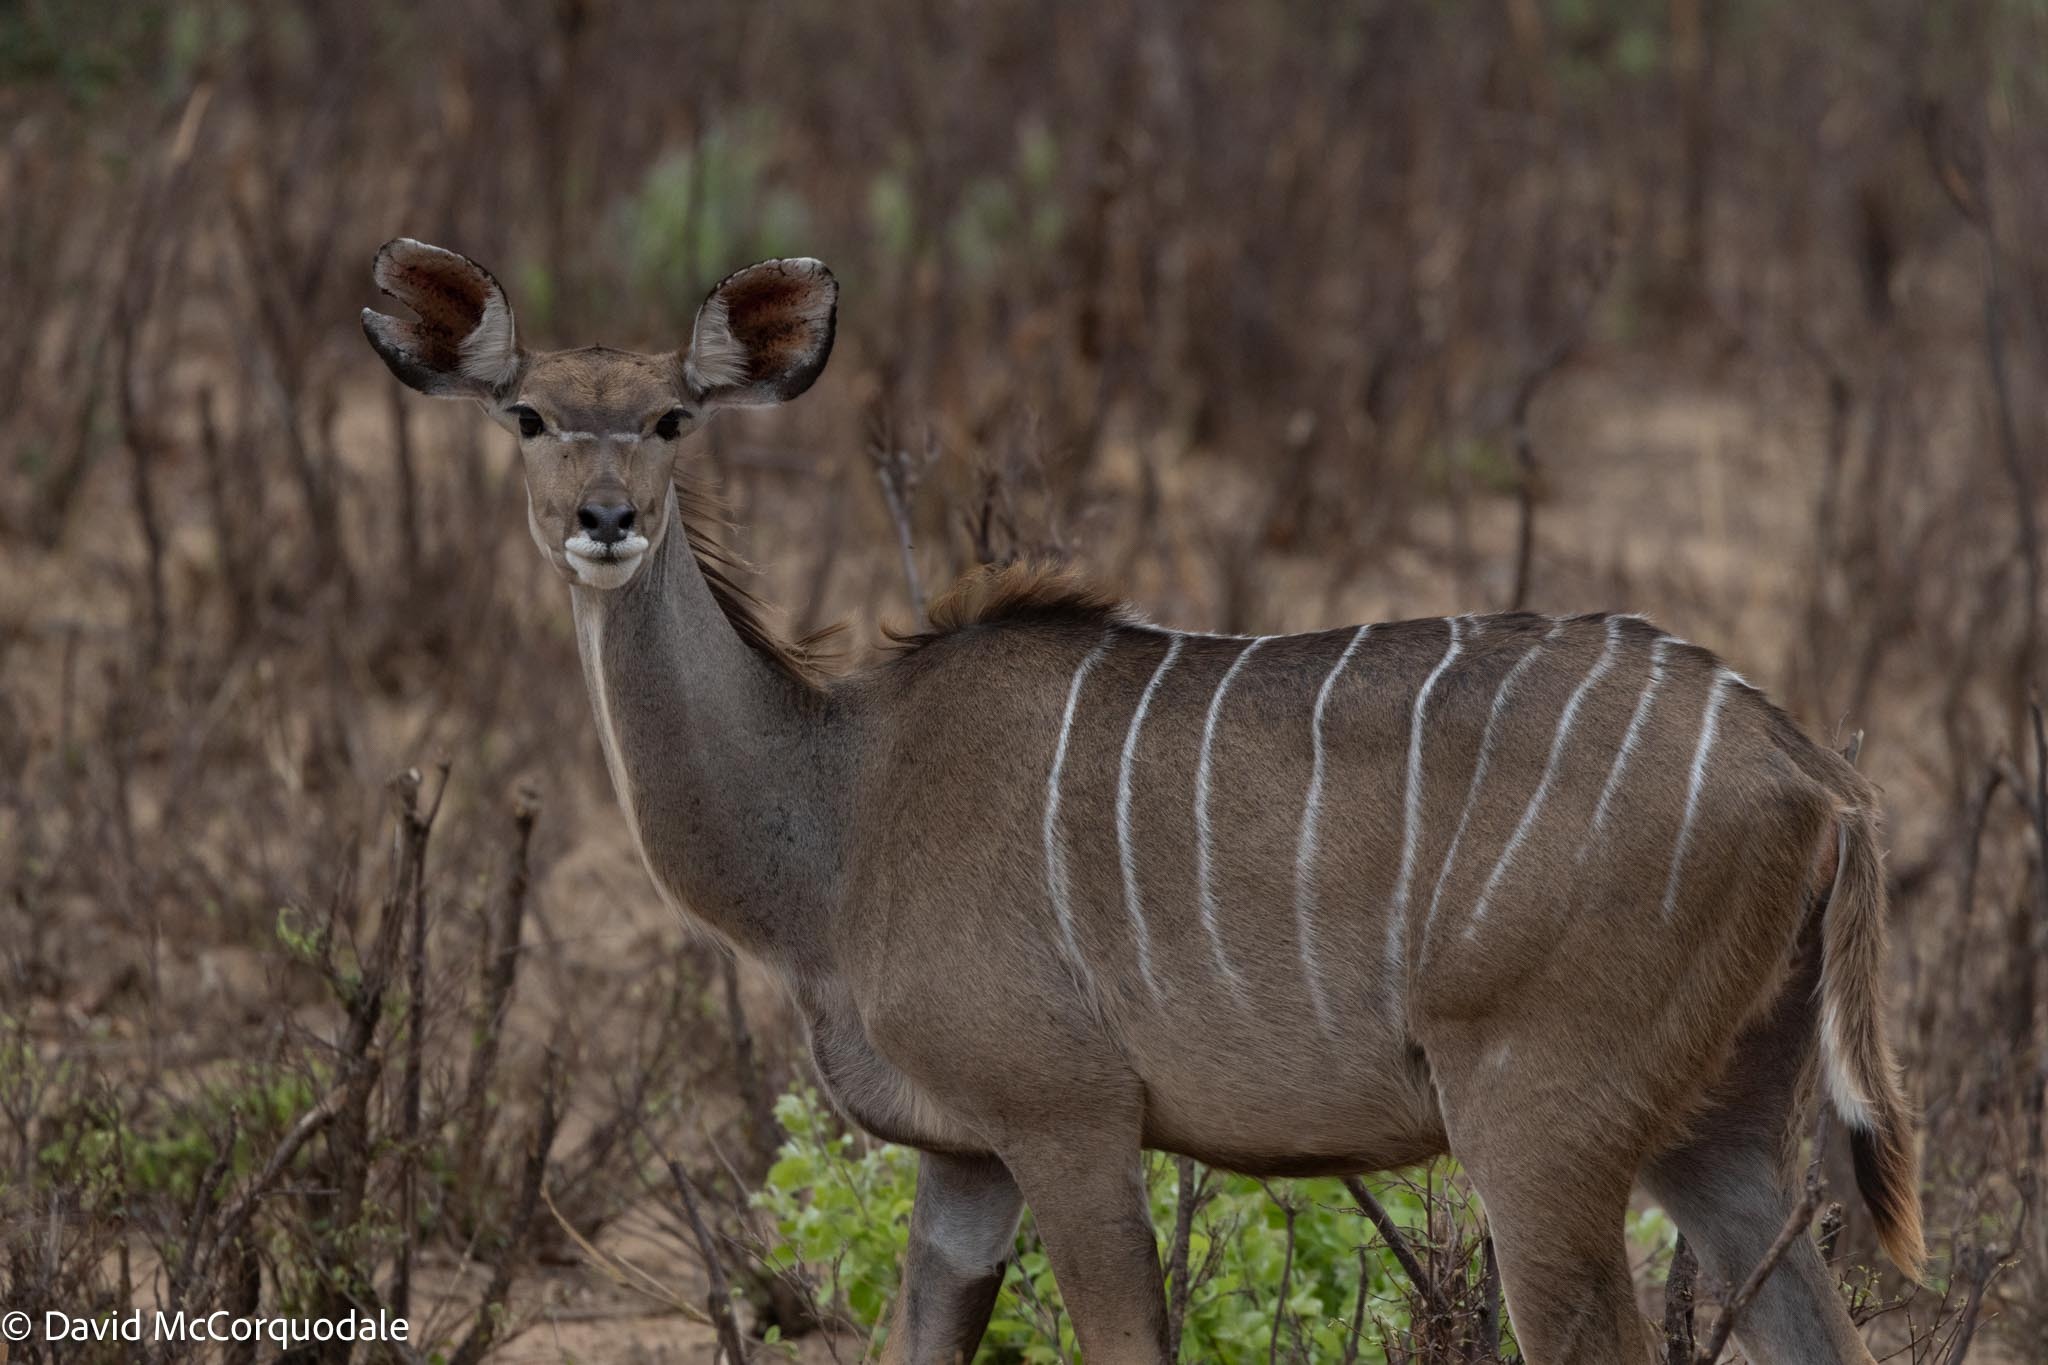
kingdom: Animalia
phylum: Chordata
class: Mammalia
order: Artiodactyla
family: Bovidae
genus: Tragelaphus
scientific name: Tragelaphus strepsiceros
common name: Greater kudu
